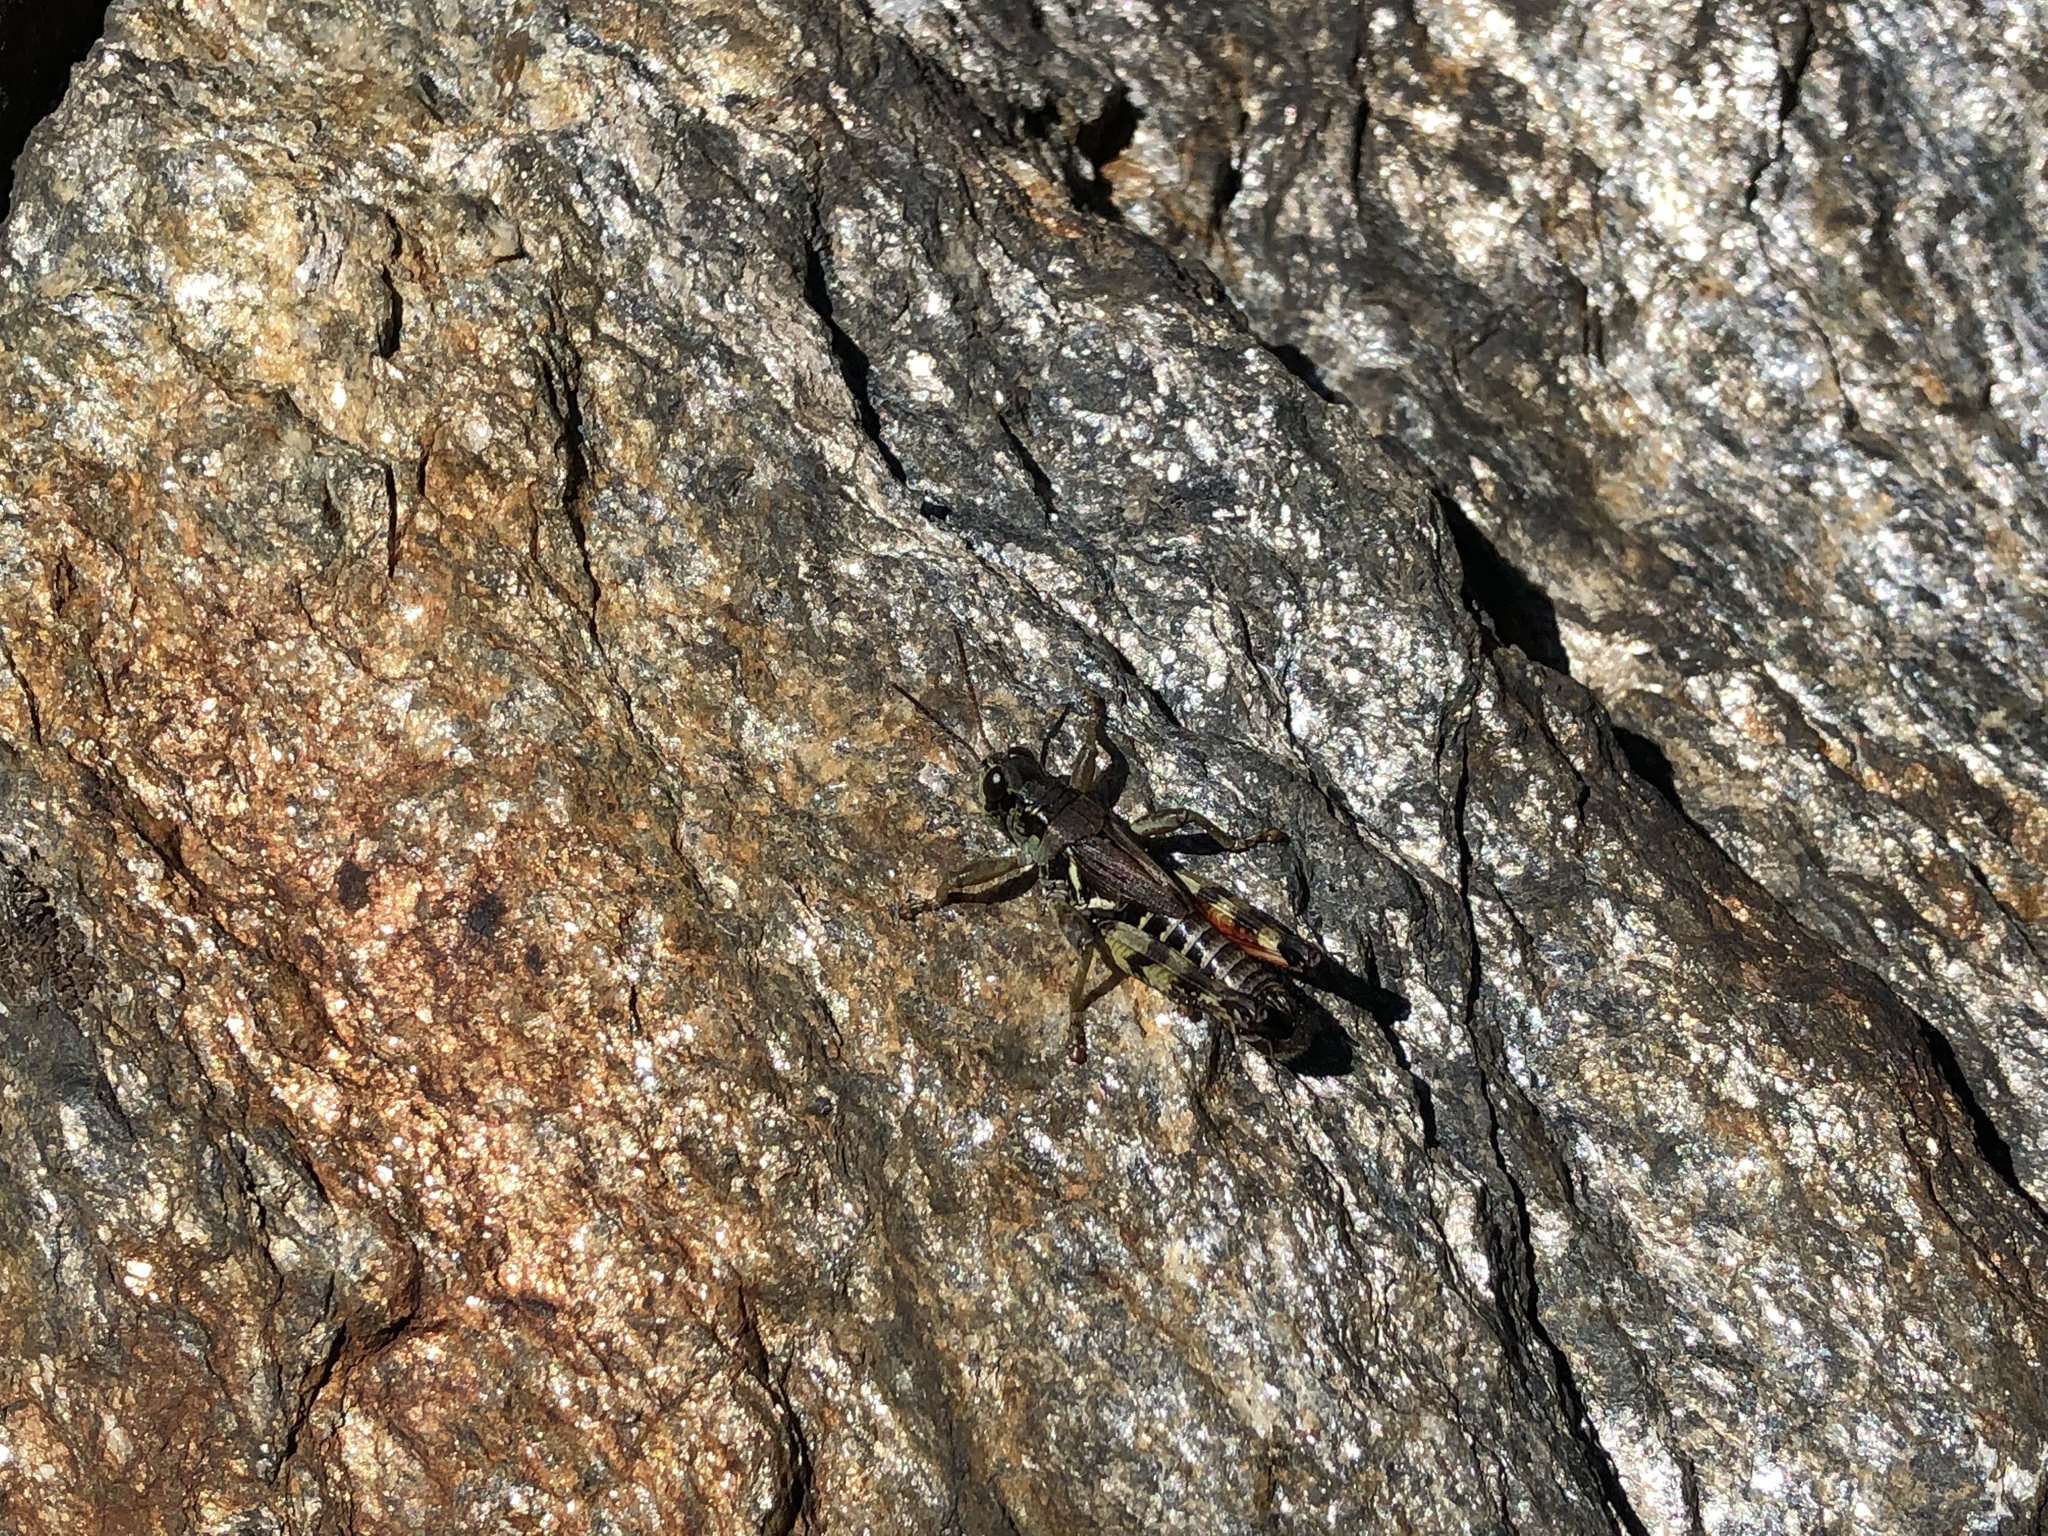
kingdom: Animalia
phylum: Arthropoda
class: Insecta
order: Orthoptera
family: Acrididae
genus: Bohemanella
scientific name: Bohemanella frigida
